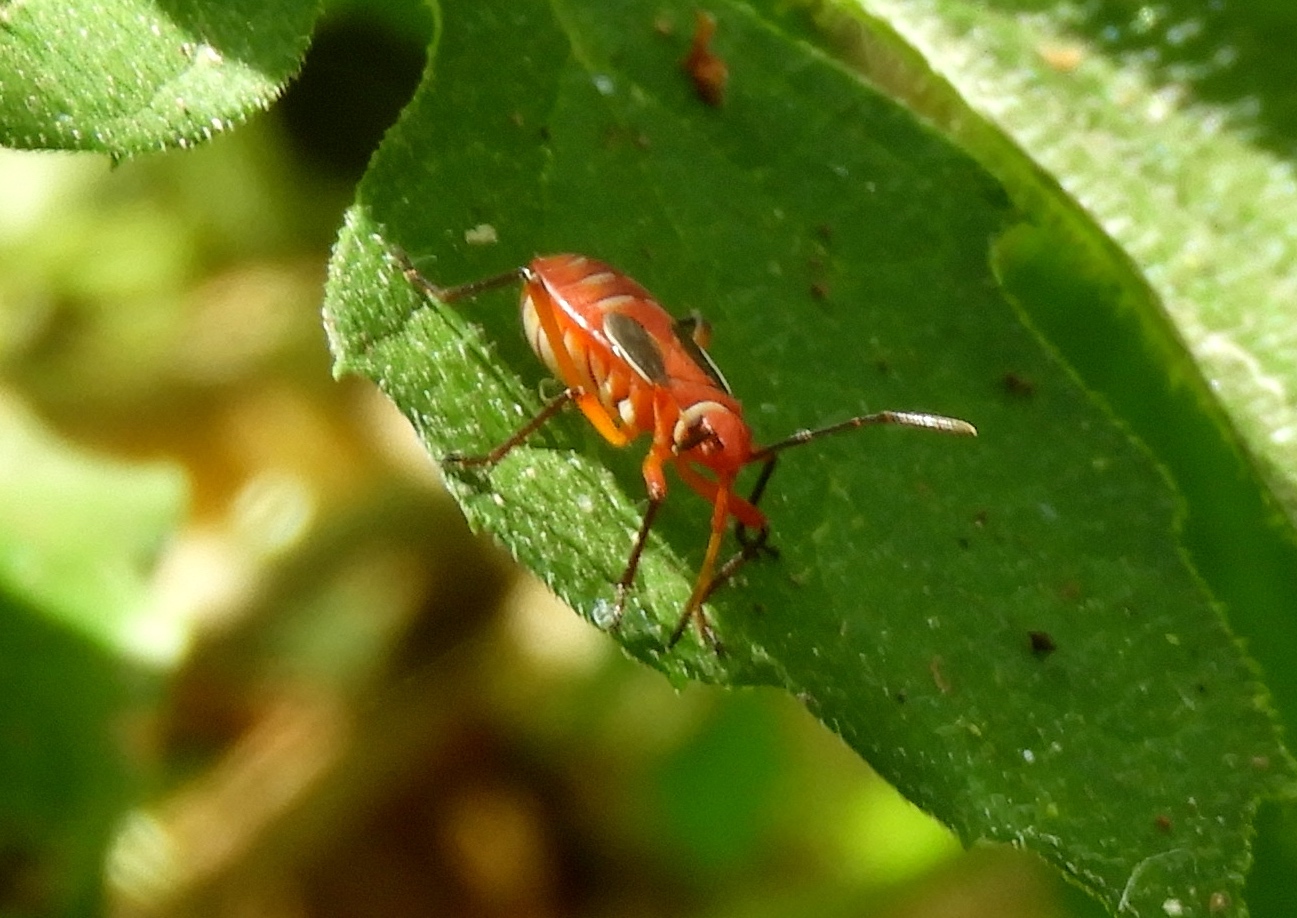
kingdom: Animalia
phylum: Arthropoda
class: Insecta
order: Hemiptera
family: Pyrrhocoridae
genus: Dysdercus
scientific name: Dysdercus
